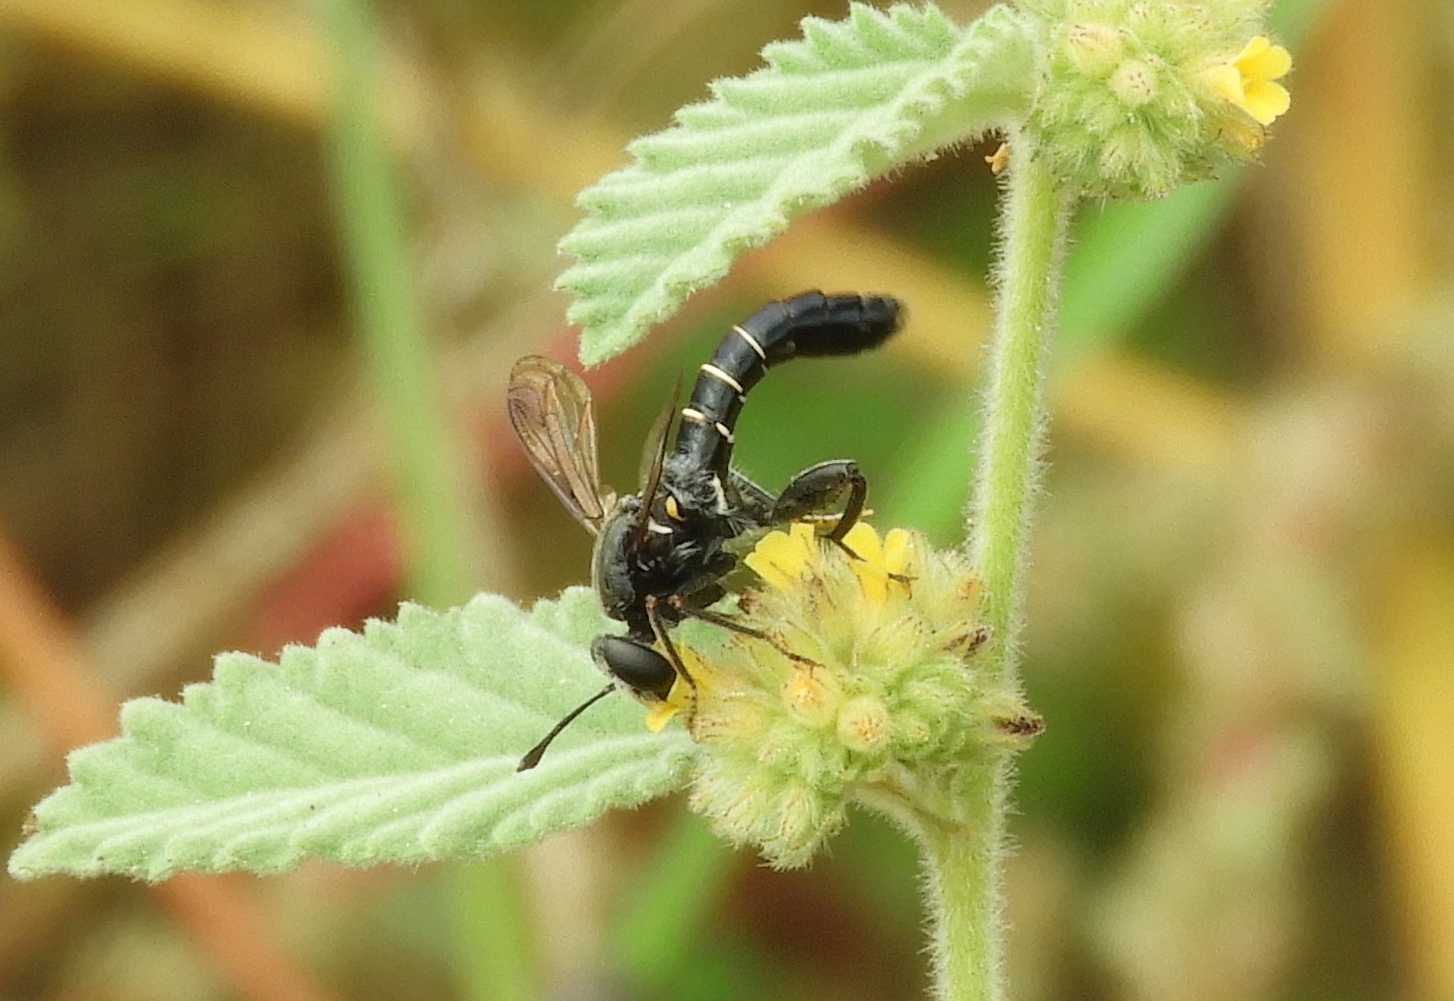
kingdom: Animalia
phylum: Arthropoda
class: Insecta
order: Diptera
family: Mydidae
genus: Mydas
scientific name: Mydas
